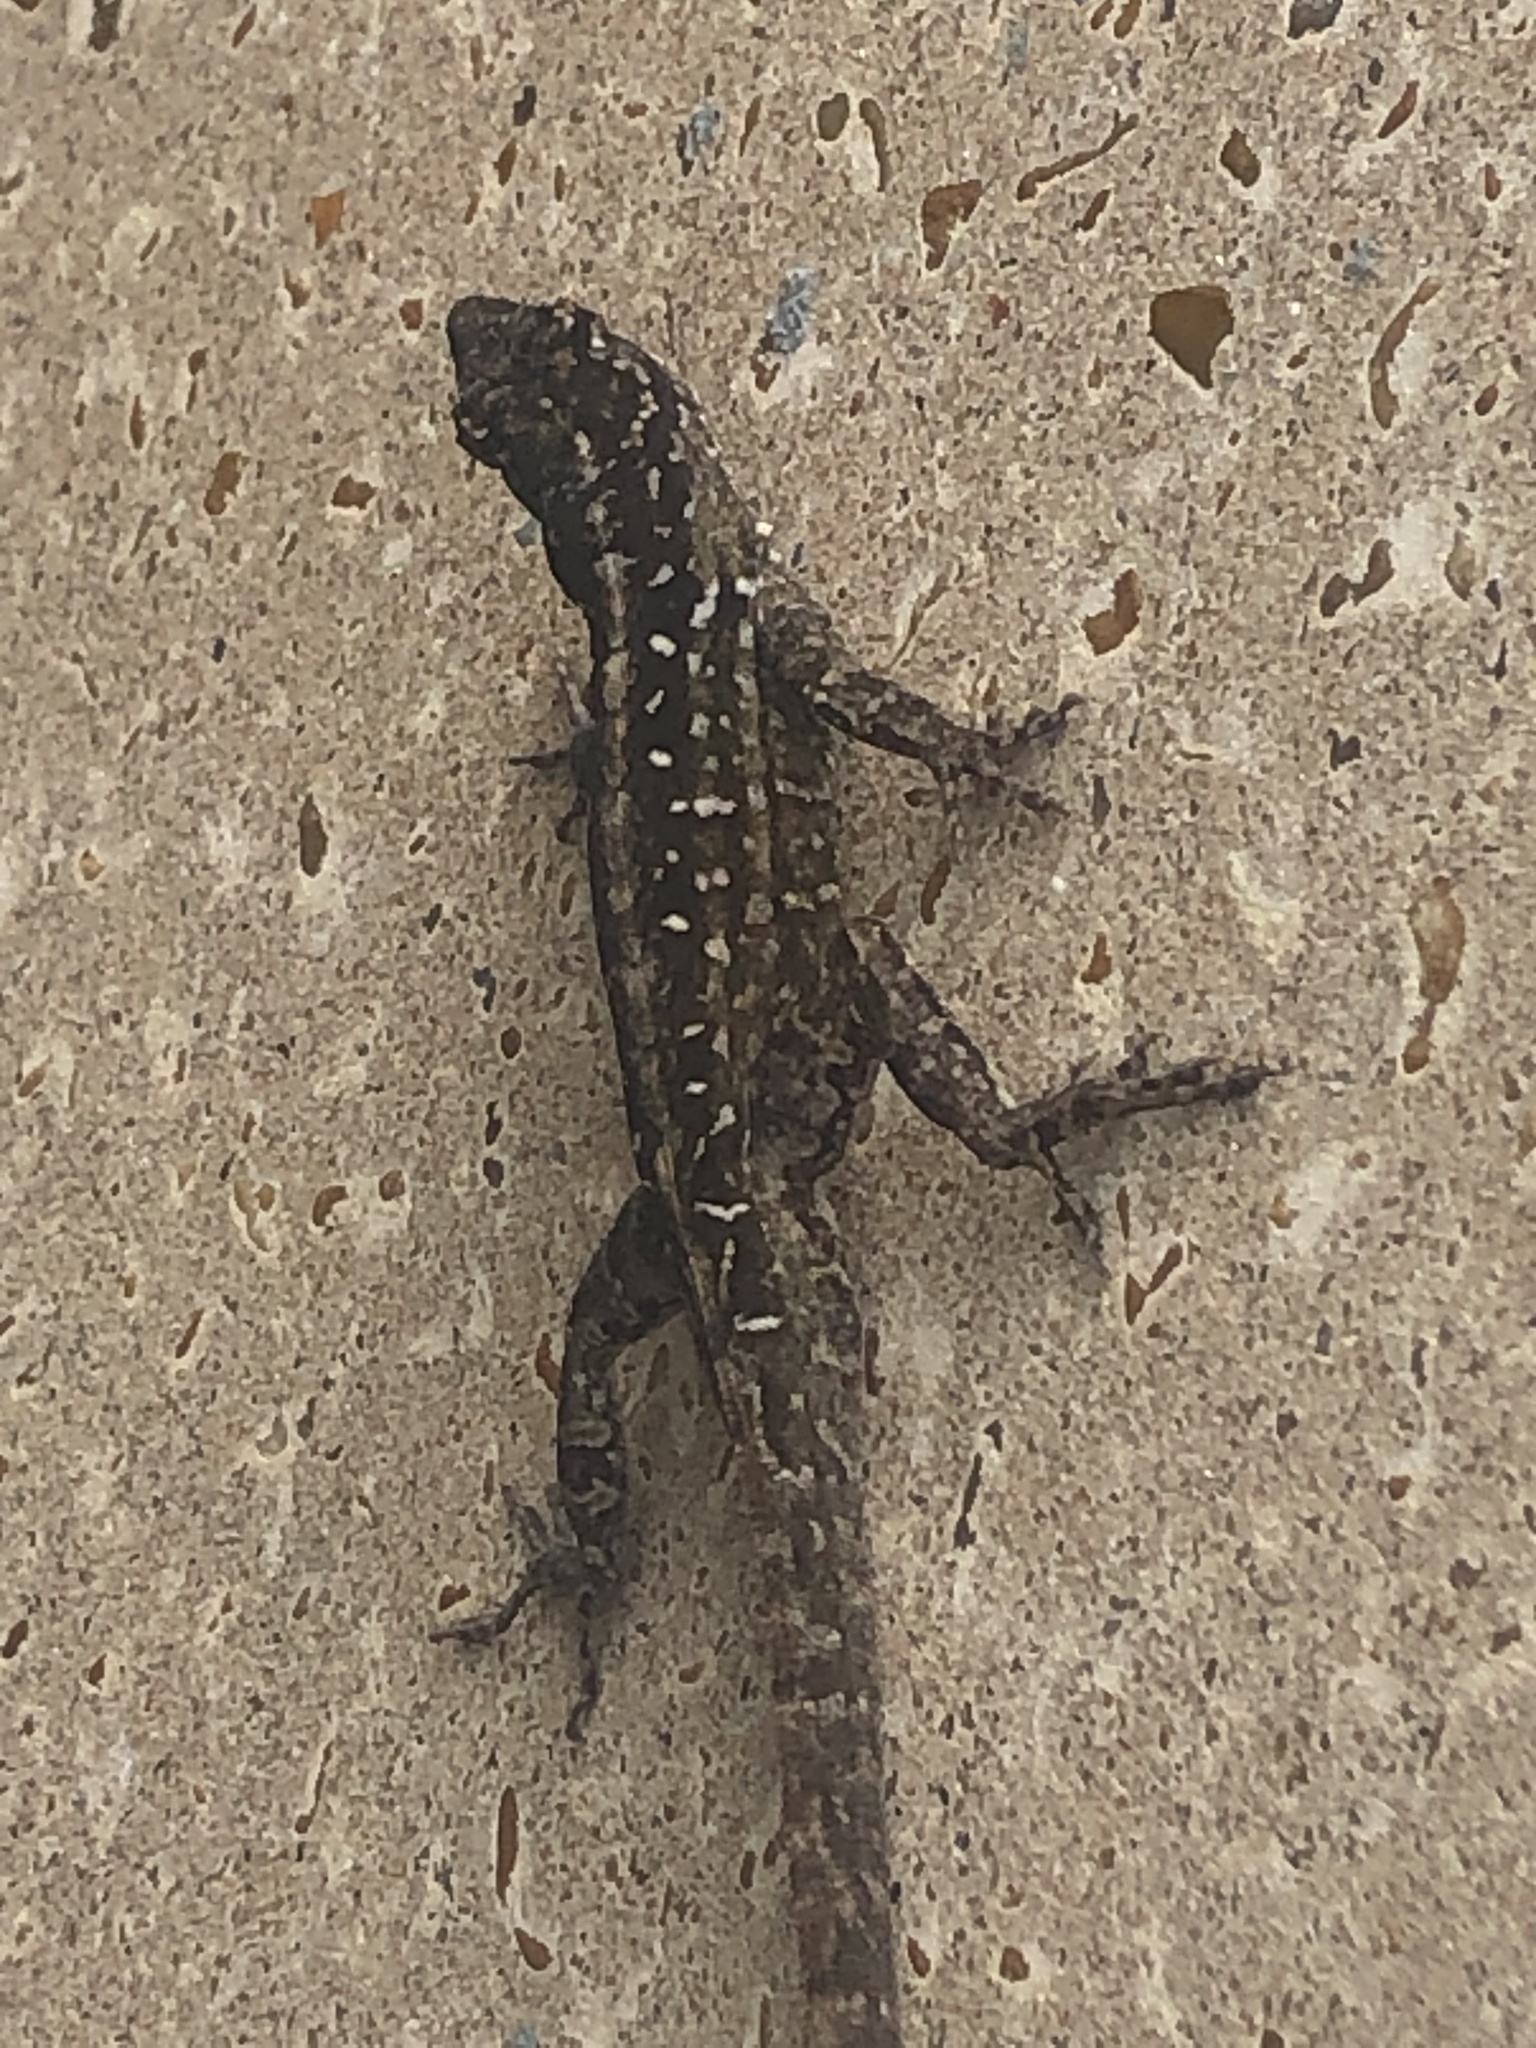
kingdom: Animalia
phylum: Chordata
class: Squamata
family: Dactyloidae
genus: Anolis
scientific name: Anolis sagrei
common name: Brown anole
